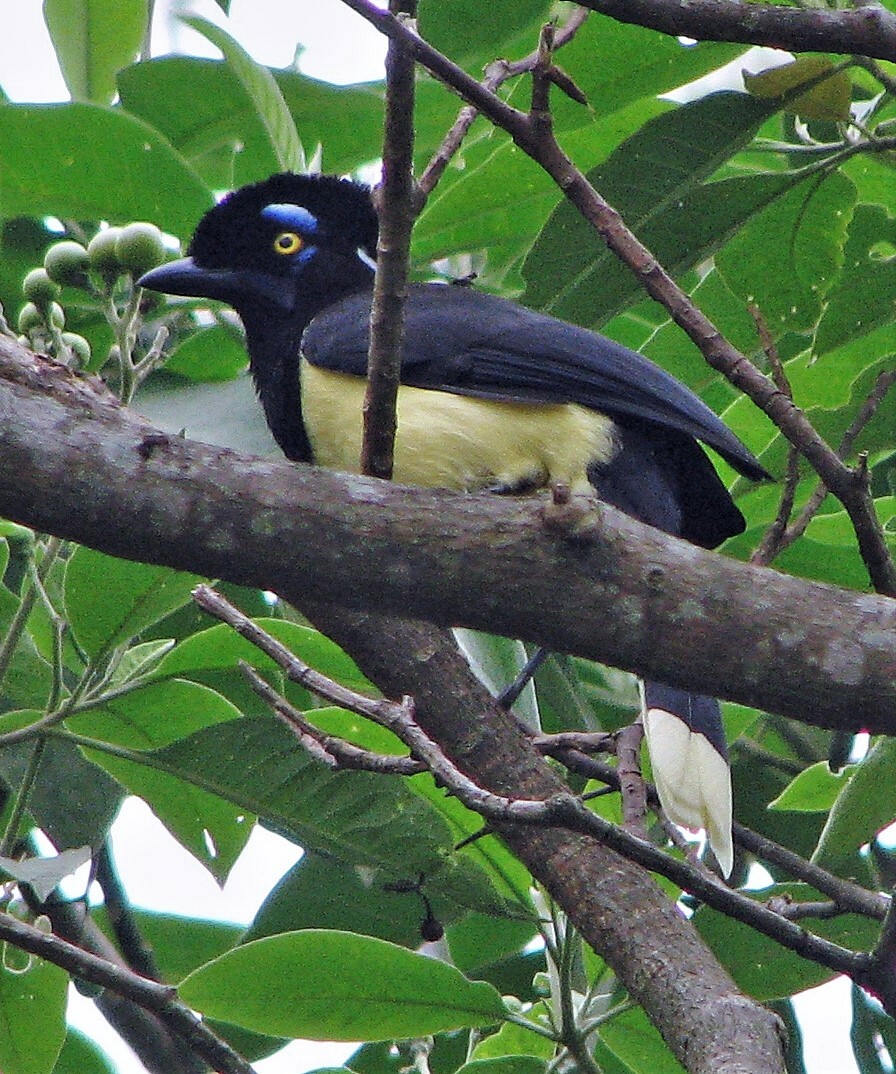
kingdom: Animalia
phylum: Chordata
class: Aves
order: Passeriformes
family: Corvidae
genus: Cyanocorax
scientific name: Cyanocorax chrysops
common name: Plush-crested jay
